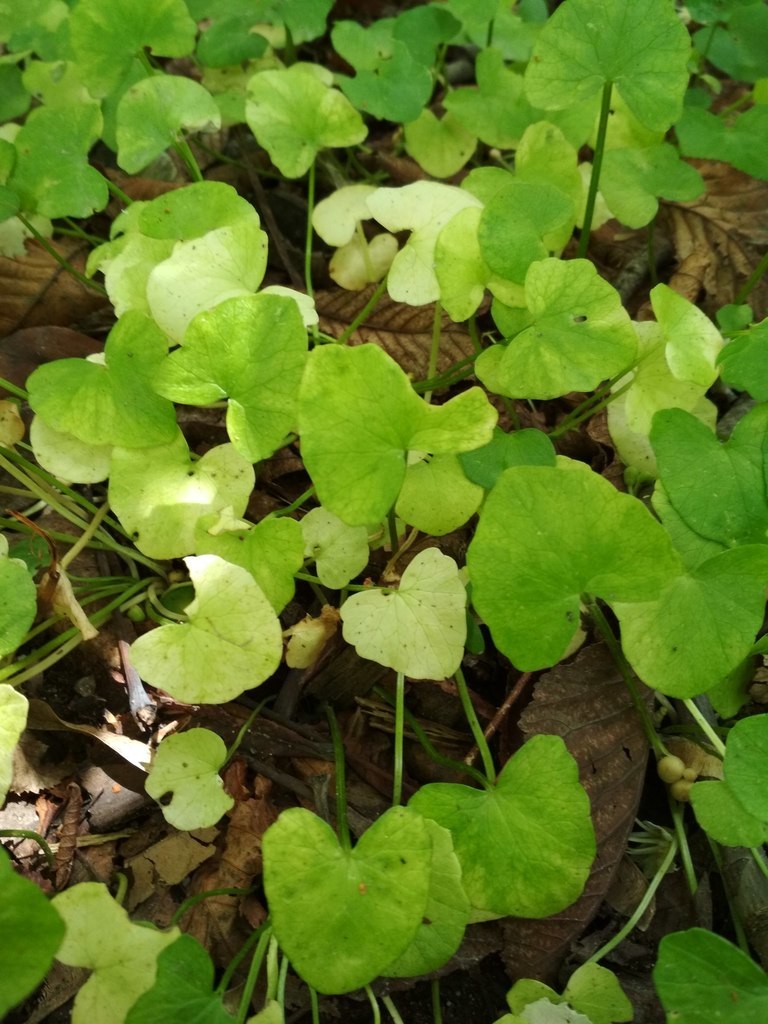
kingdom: Plantae
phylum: Tracheophyta
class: Magnoliopsida
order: Ranunculales
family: Ranunculaceae
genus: Ficaria
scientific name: Ficaria verna
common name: Lesser celandine
